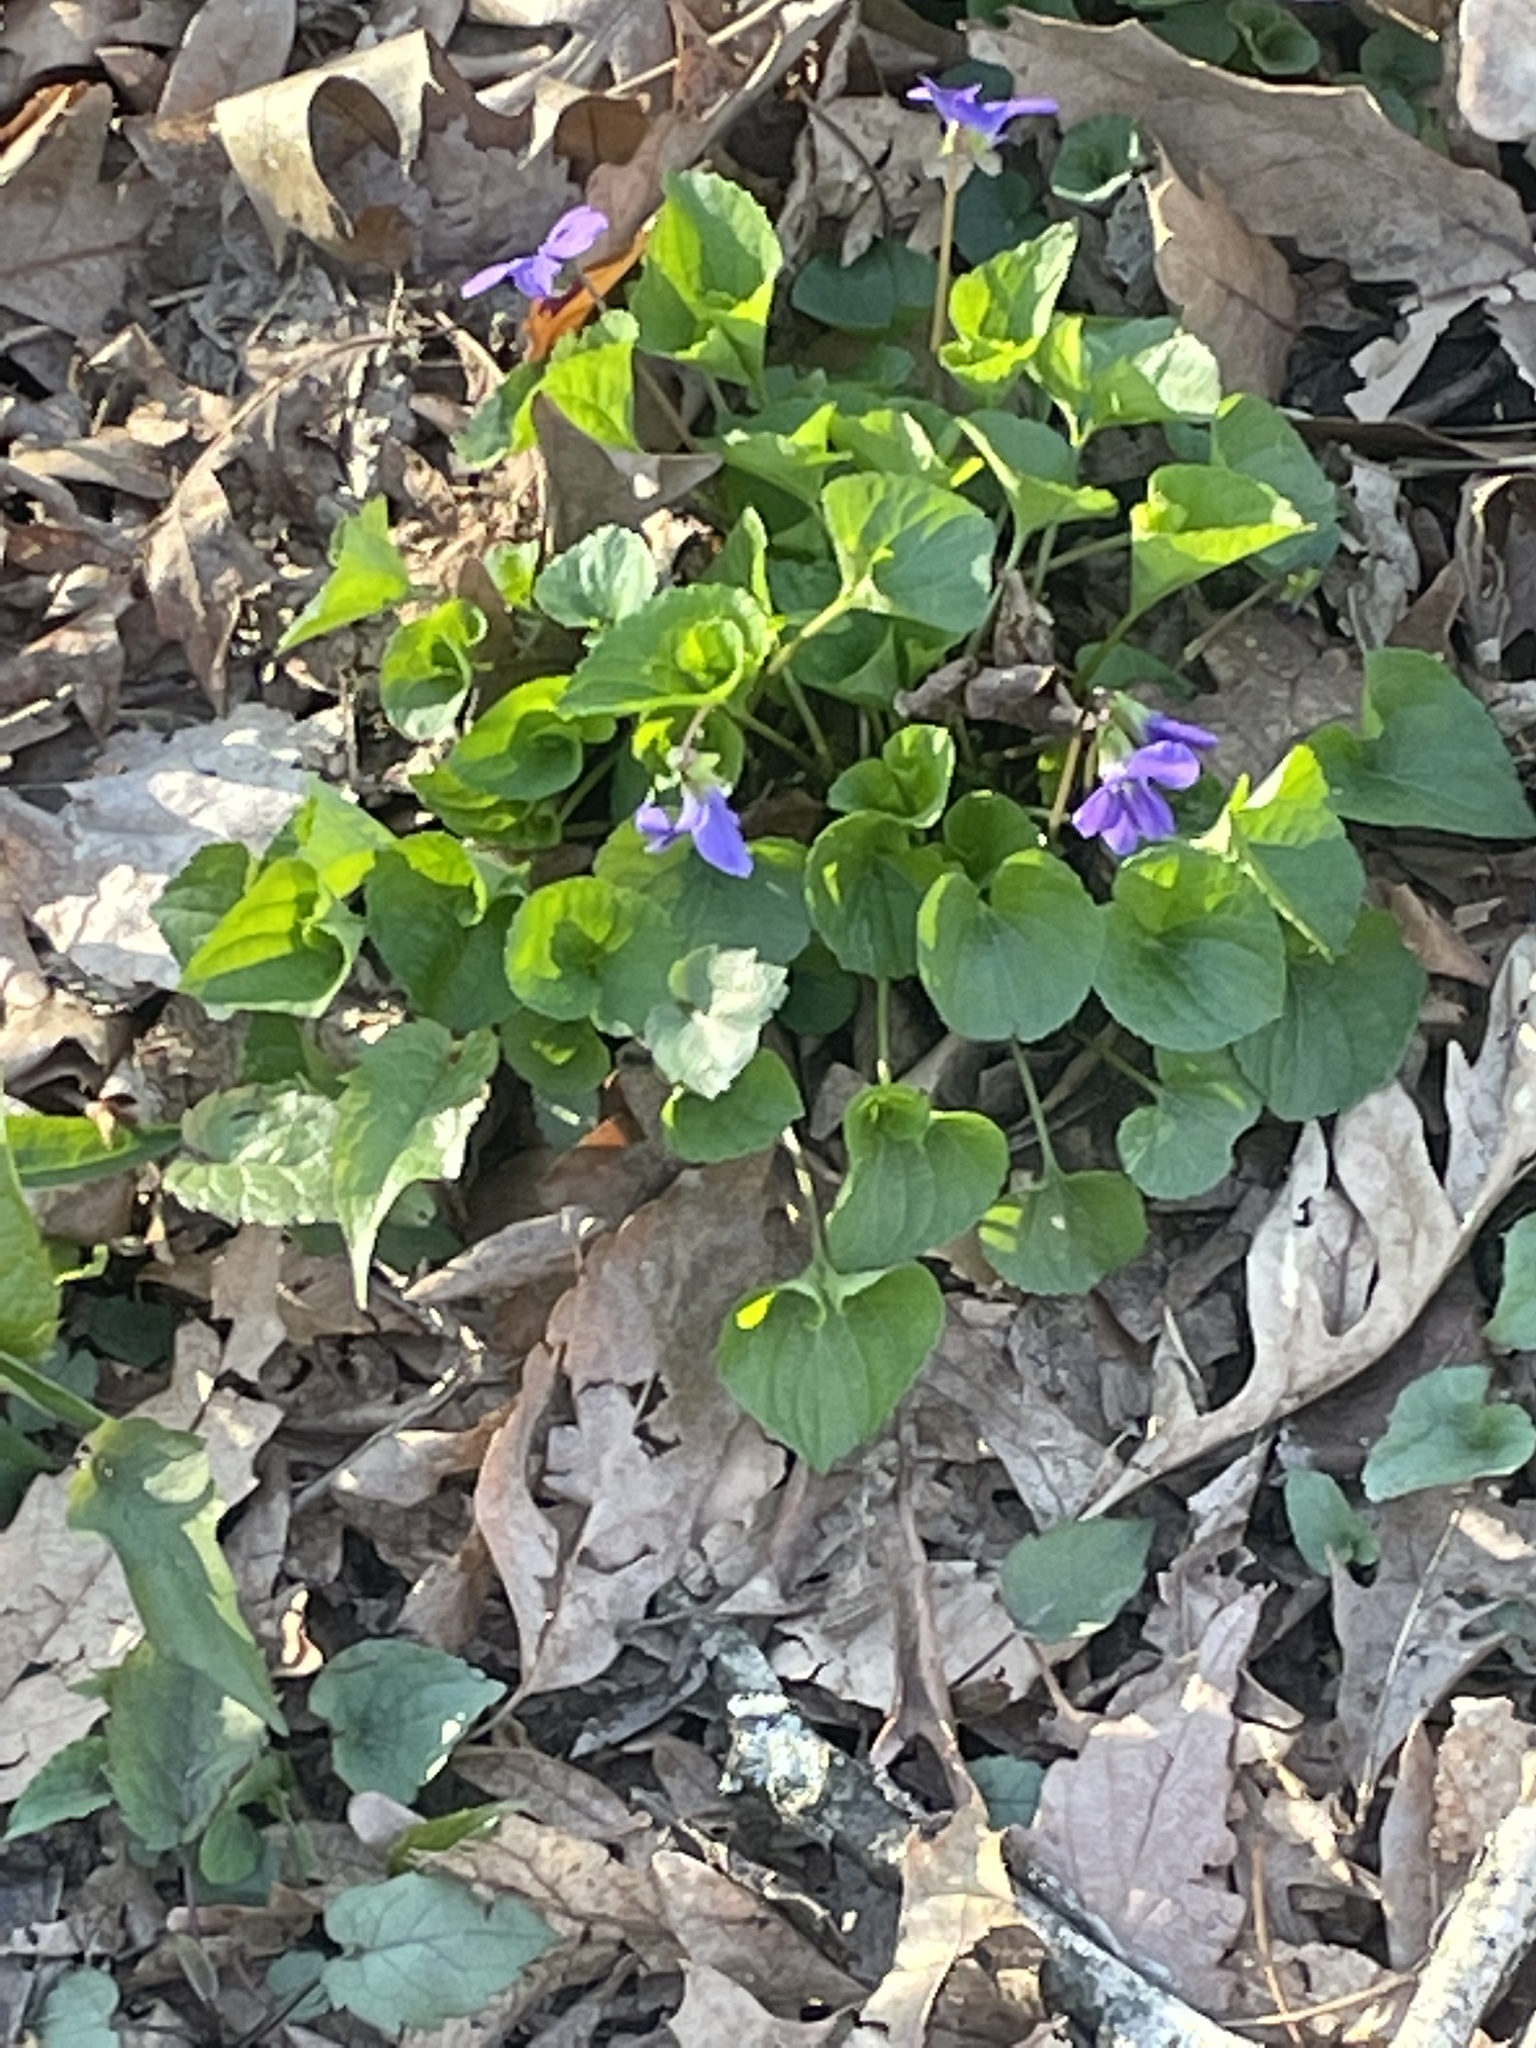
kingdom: Plantae
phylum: Tracheophyta
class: Magnoliopsida
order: Malpighiales
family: Violaceae
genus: Viola
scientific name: Viola sororia
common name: Dooryard violet
